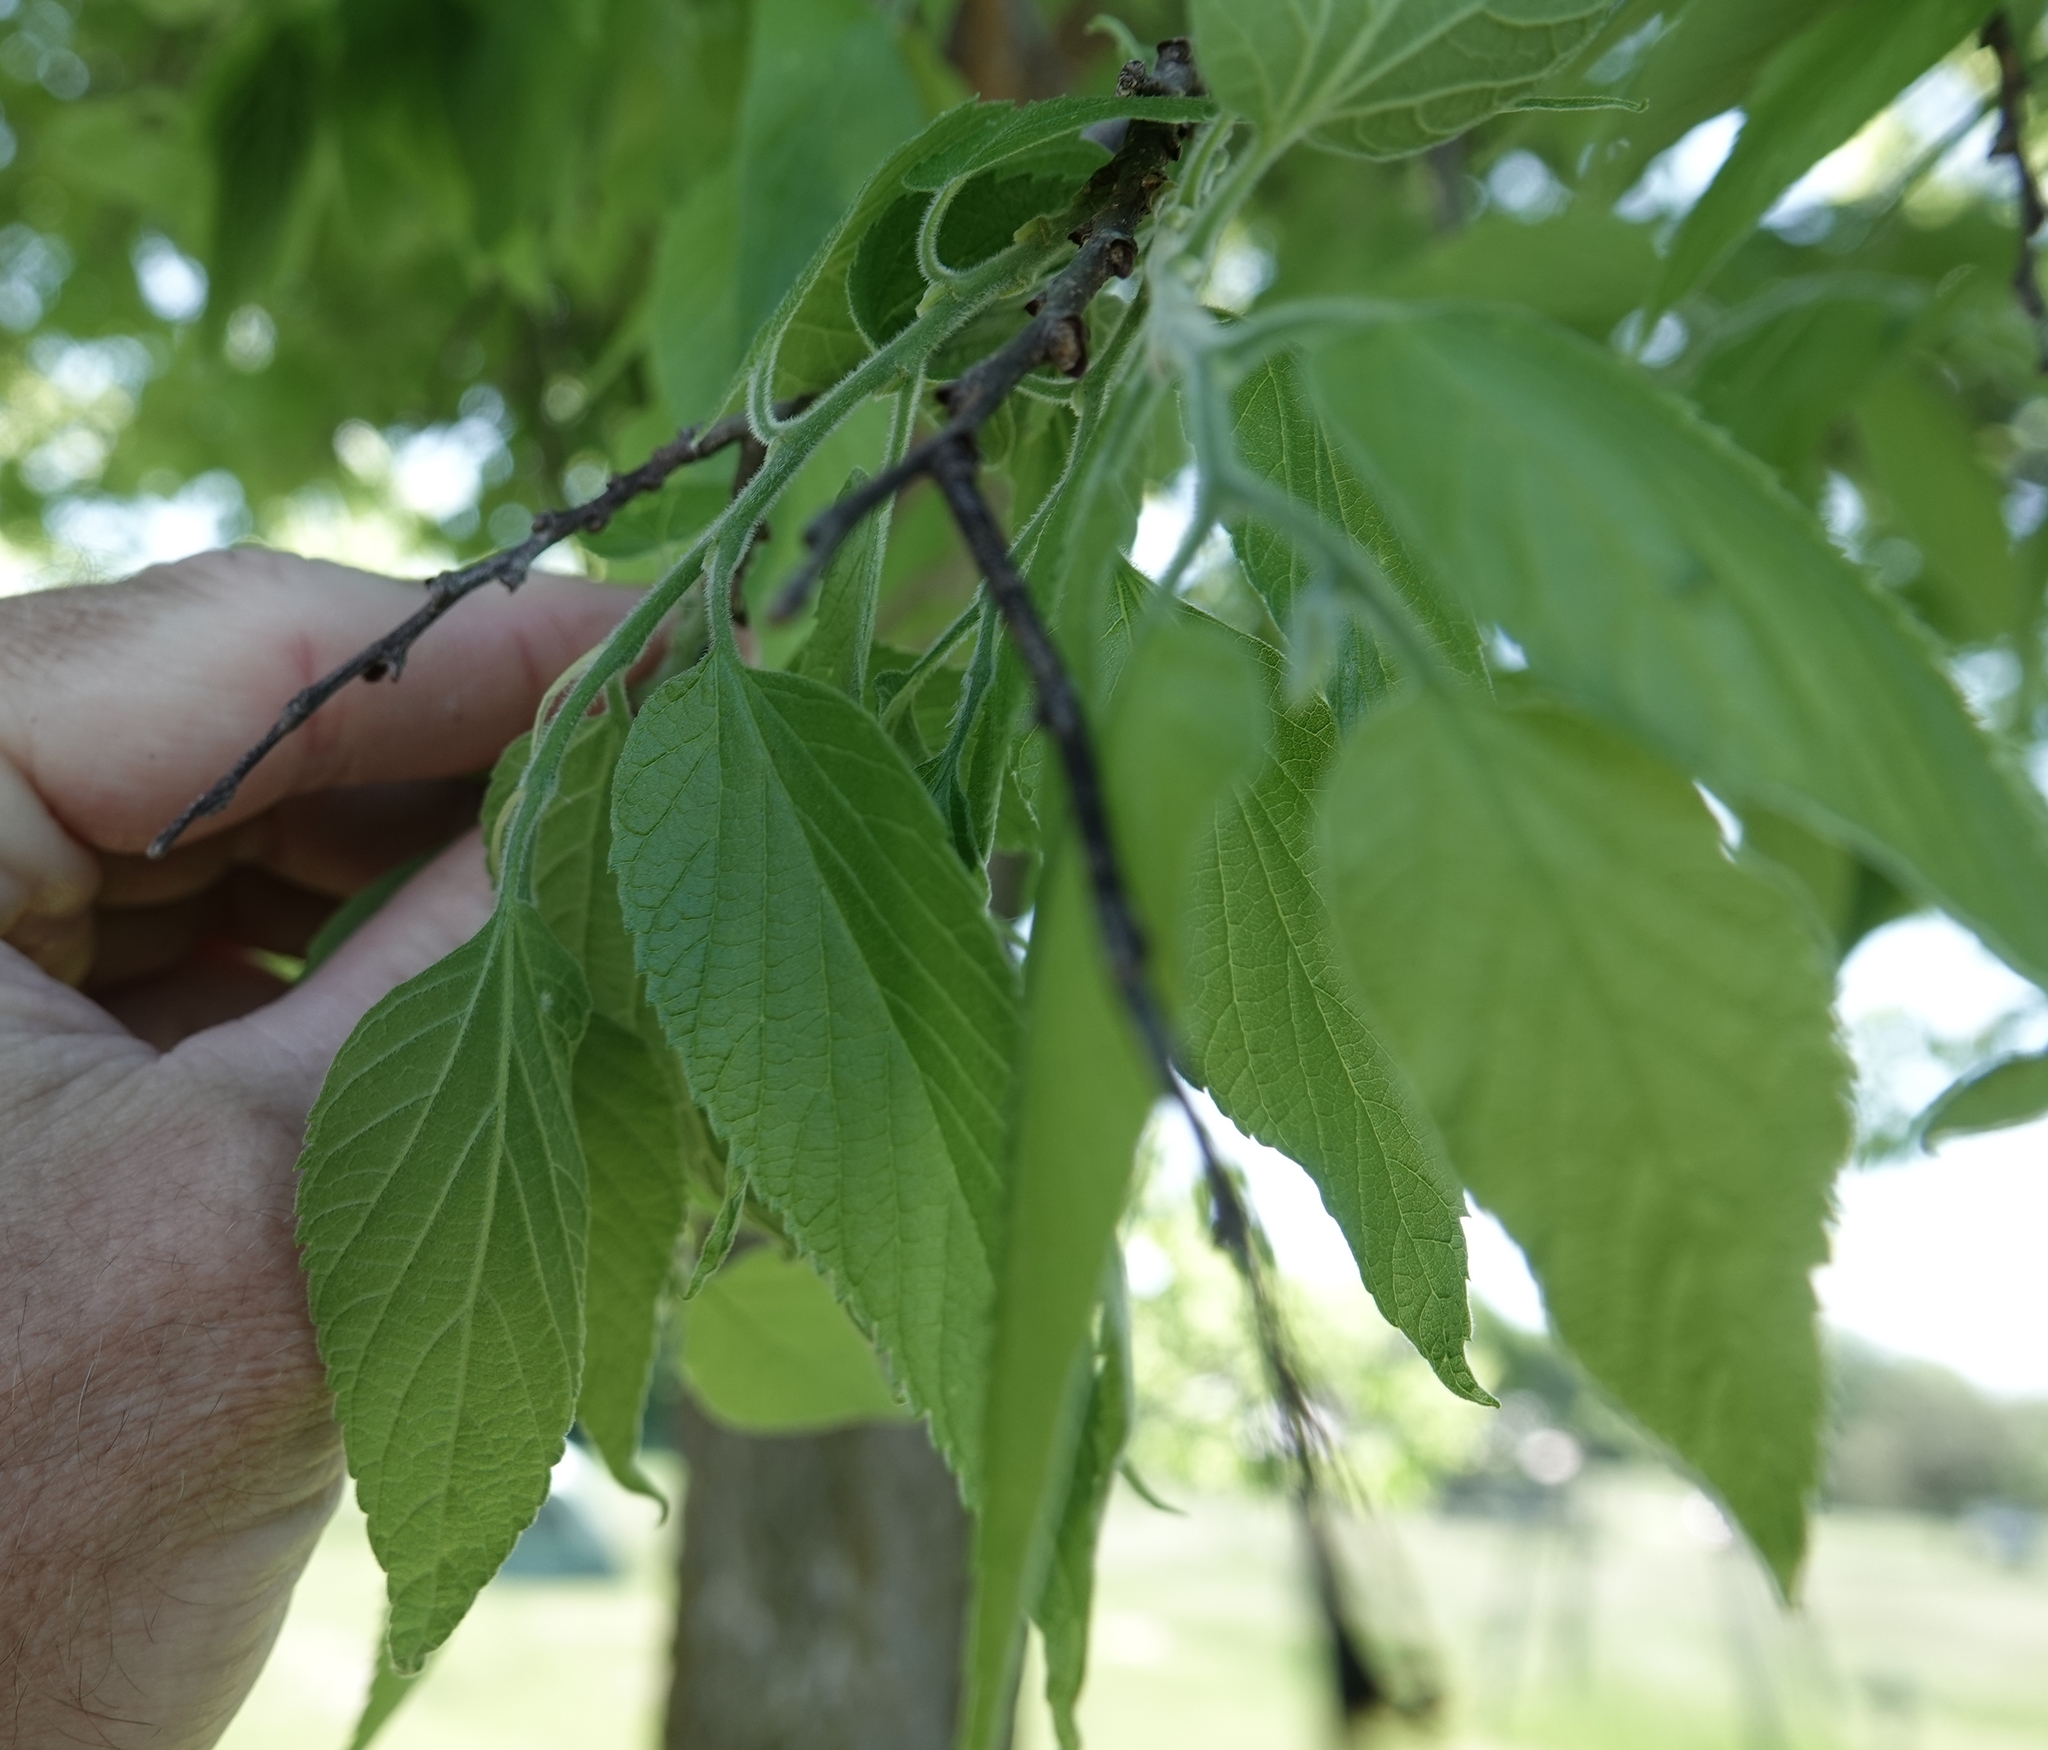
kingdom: Plantae
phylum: Tracheophyta
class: Magnoliopsida
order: Rosales
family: Cannabaceae
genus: Celtis
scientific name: Celtis occidentalis
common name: Common hackberry
